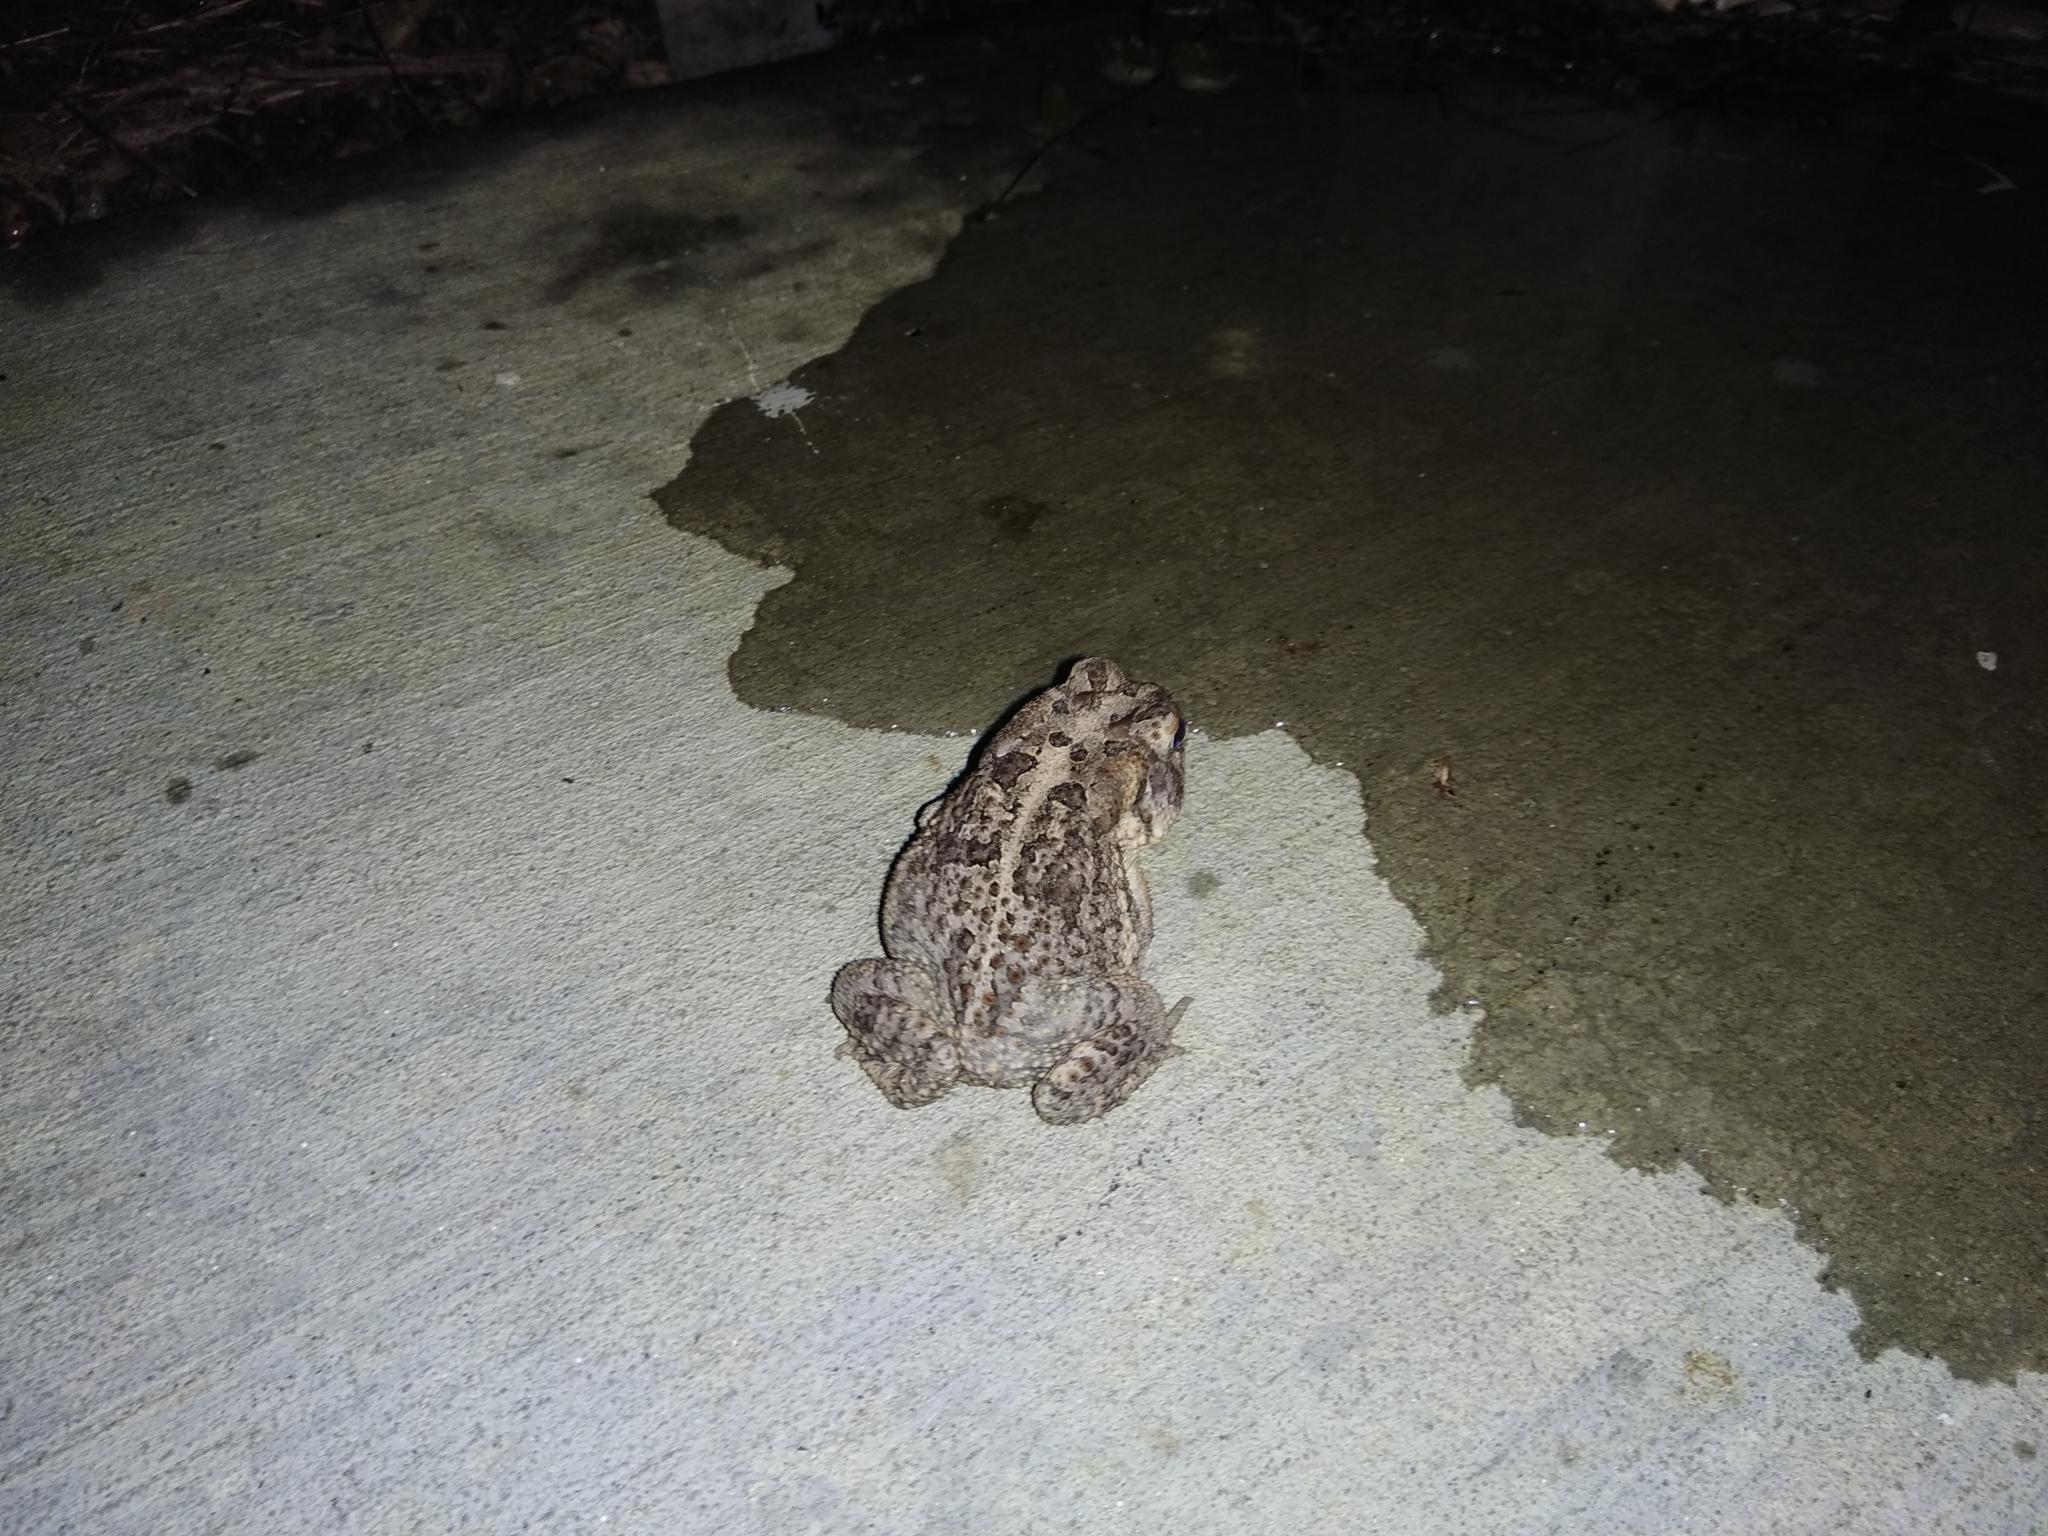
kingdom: Animalia
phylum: Chordata
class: Amphibia
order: Anura
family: Bufonidae
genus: Anaxyrus
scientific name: Anaxyrus terrestris
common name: Southern toad
